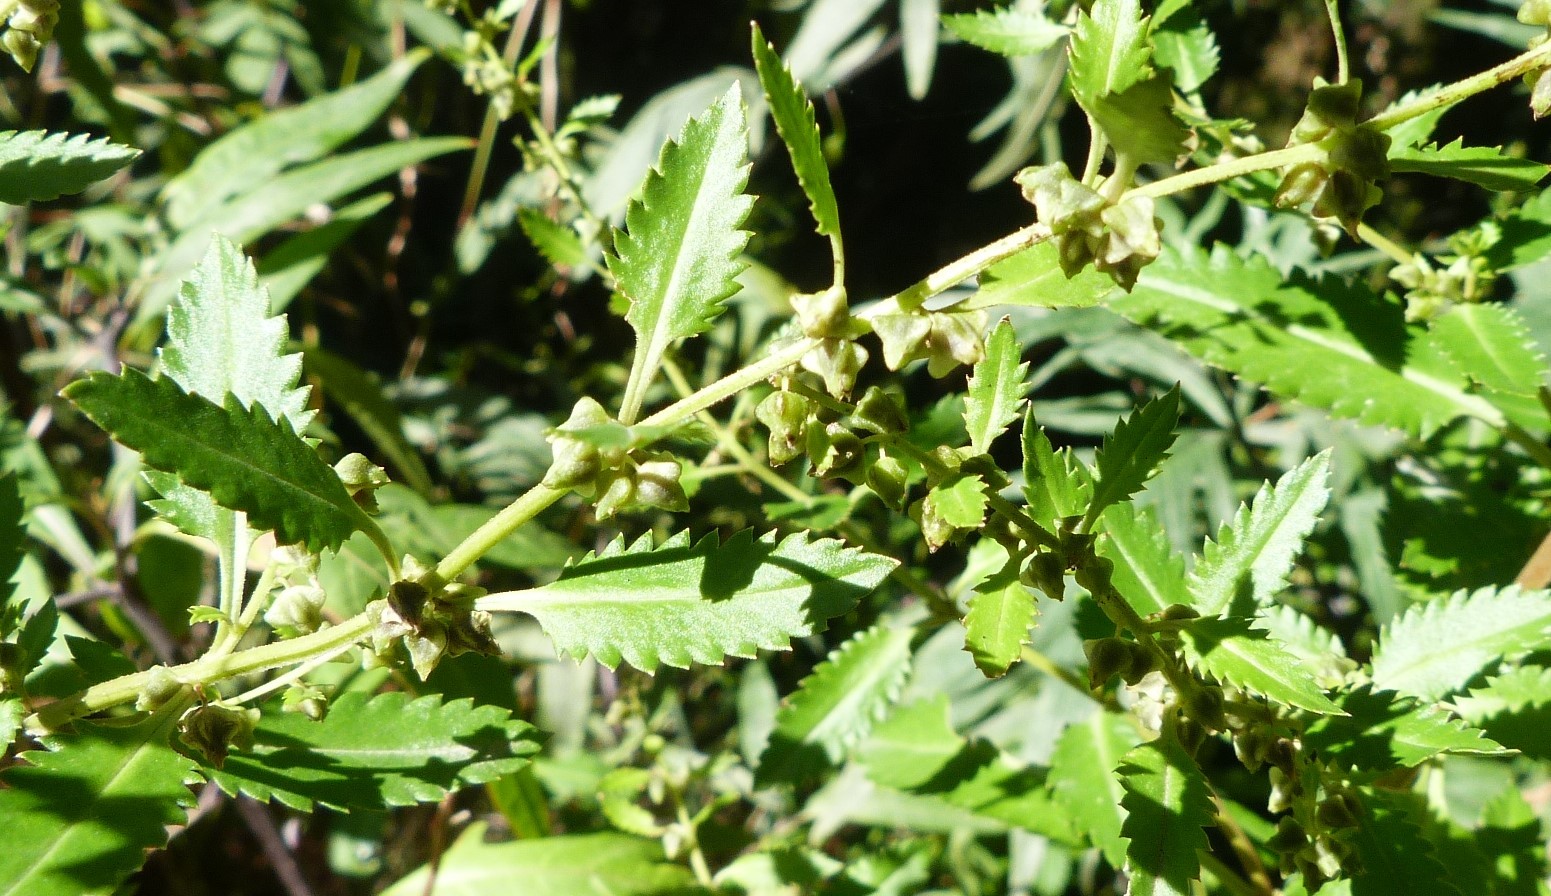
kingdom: Plantae
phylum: Tracheophyta
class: Magnoliopsida
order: Saxifragales
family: Haloragaceae
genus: Haloragis
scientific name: Haloragis erecta
